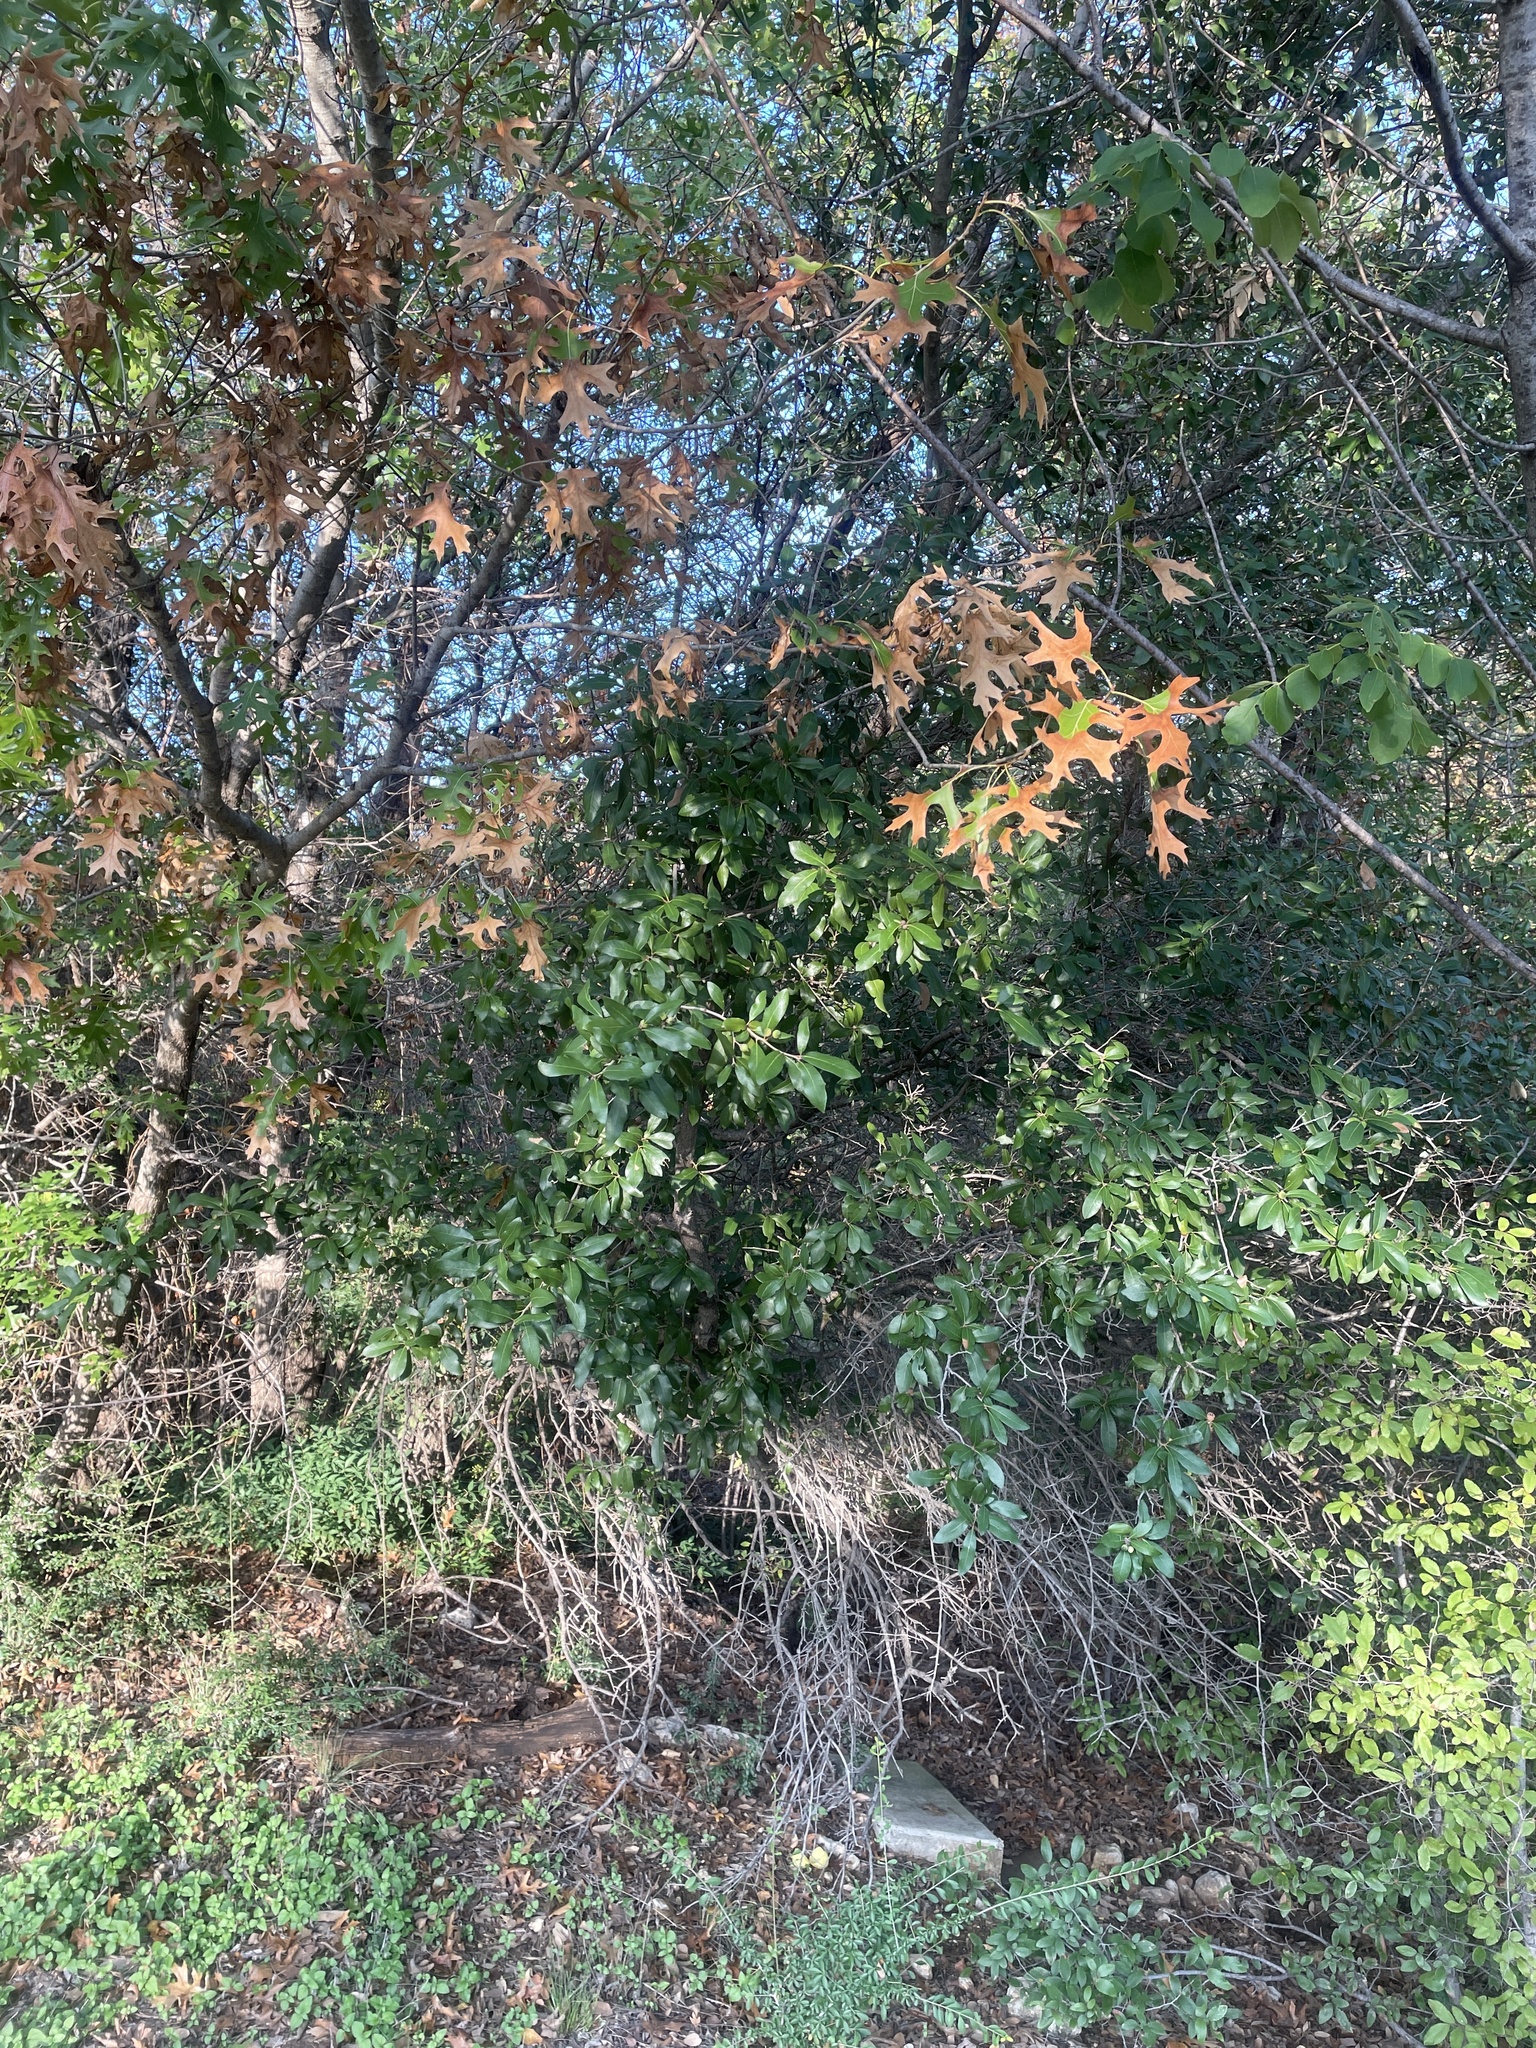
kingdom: Plantae
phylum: Tracheophyta
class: Magnoliopsida
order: Fagales
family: Fagaceae
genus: Quercus
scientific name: Quercus fusiformis
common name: Texas live oak
